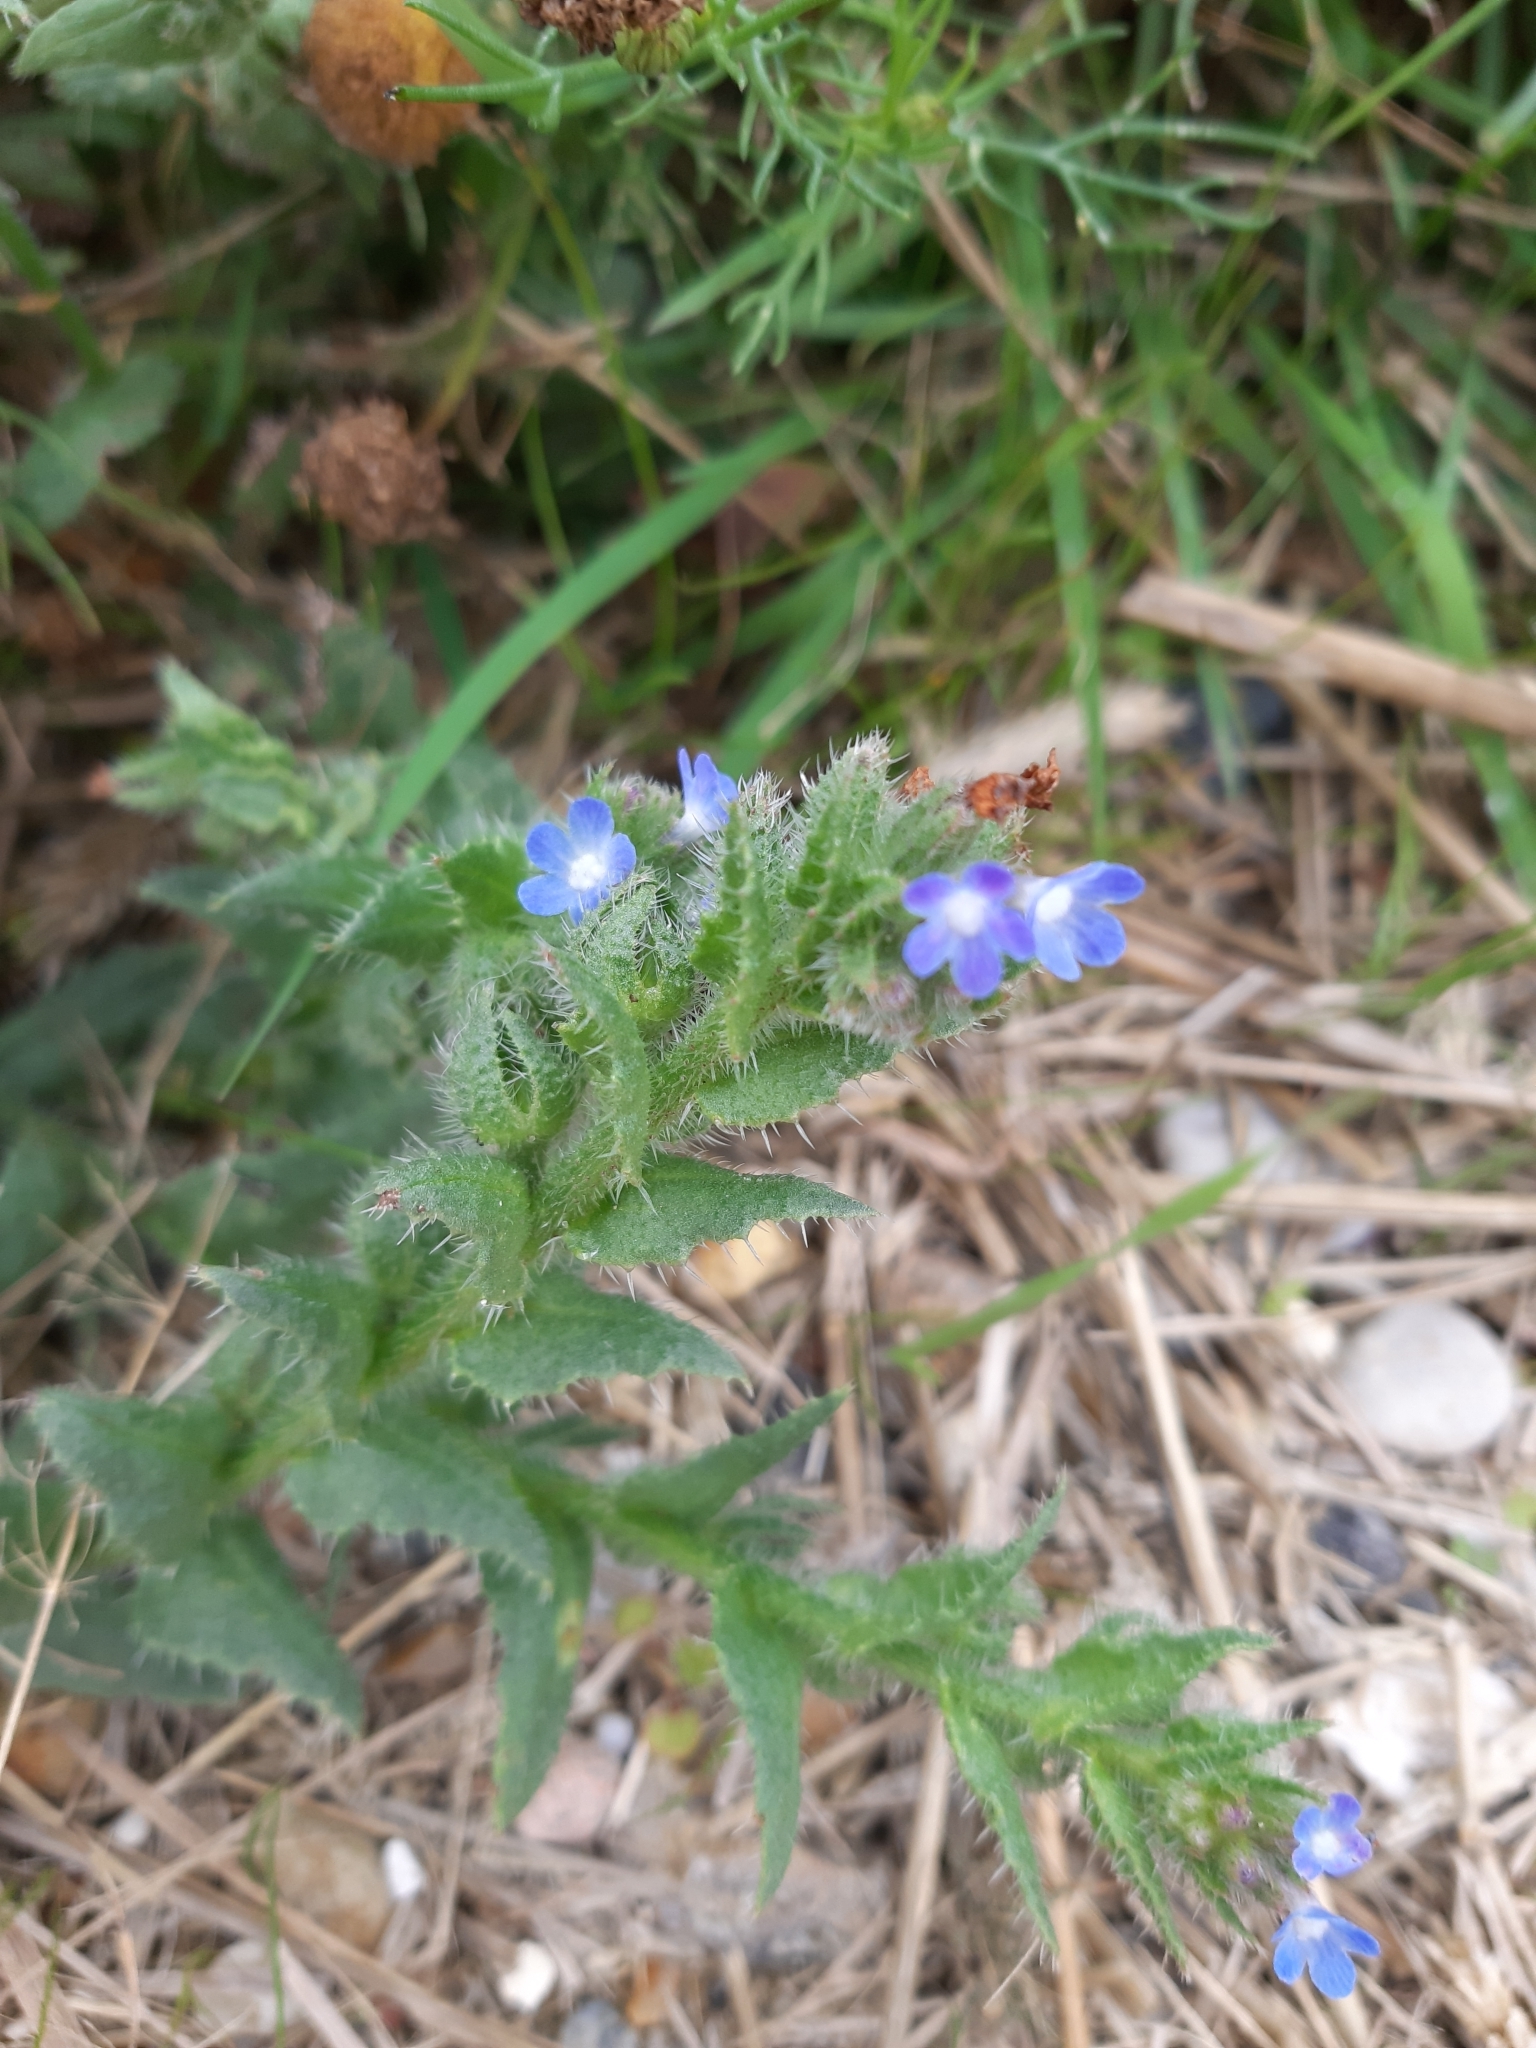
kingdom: Plantae
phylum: Tracheophyta
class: Magnoliopsida
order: Boraginales
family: Boraginaceae
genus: Lycopsis
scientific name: Lycopsis arvensis
